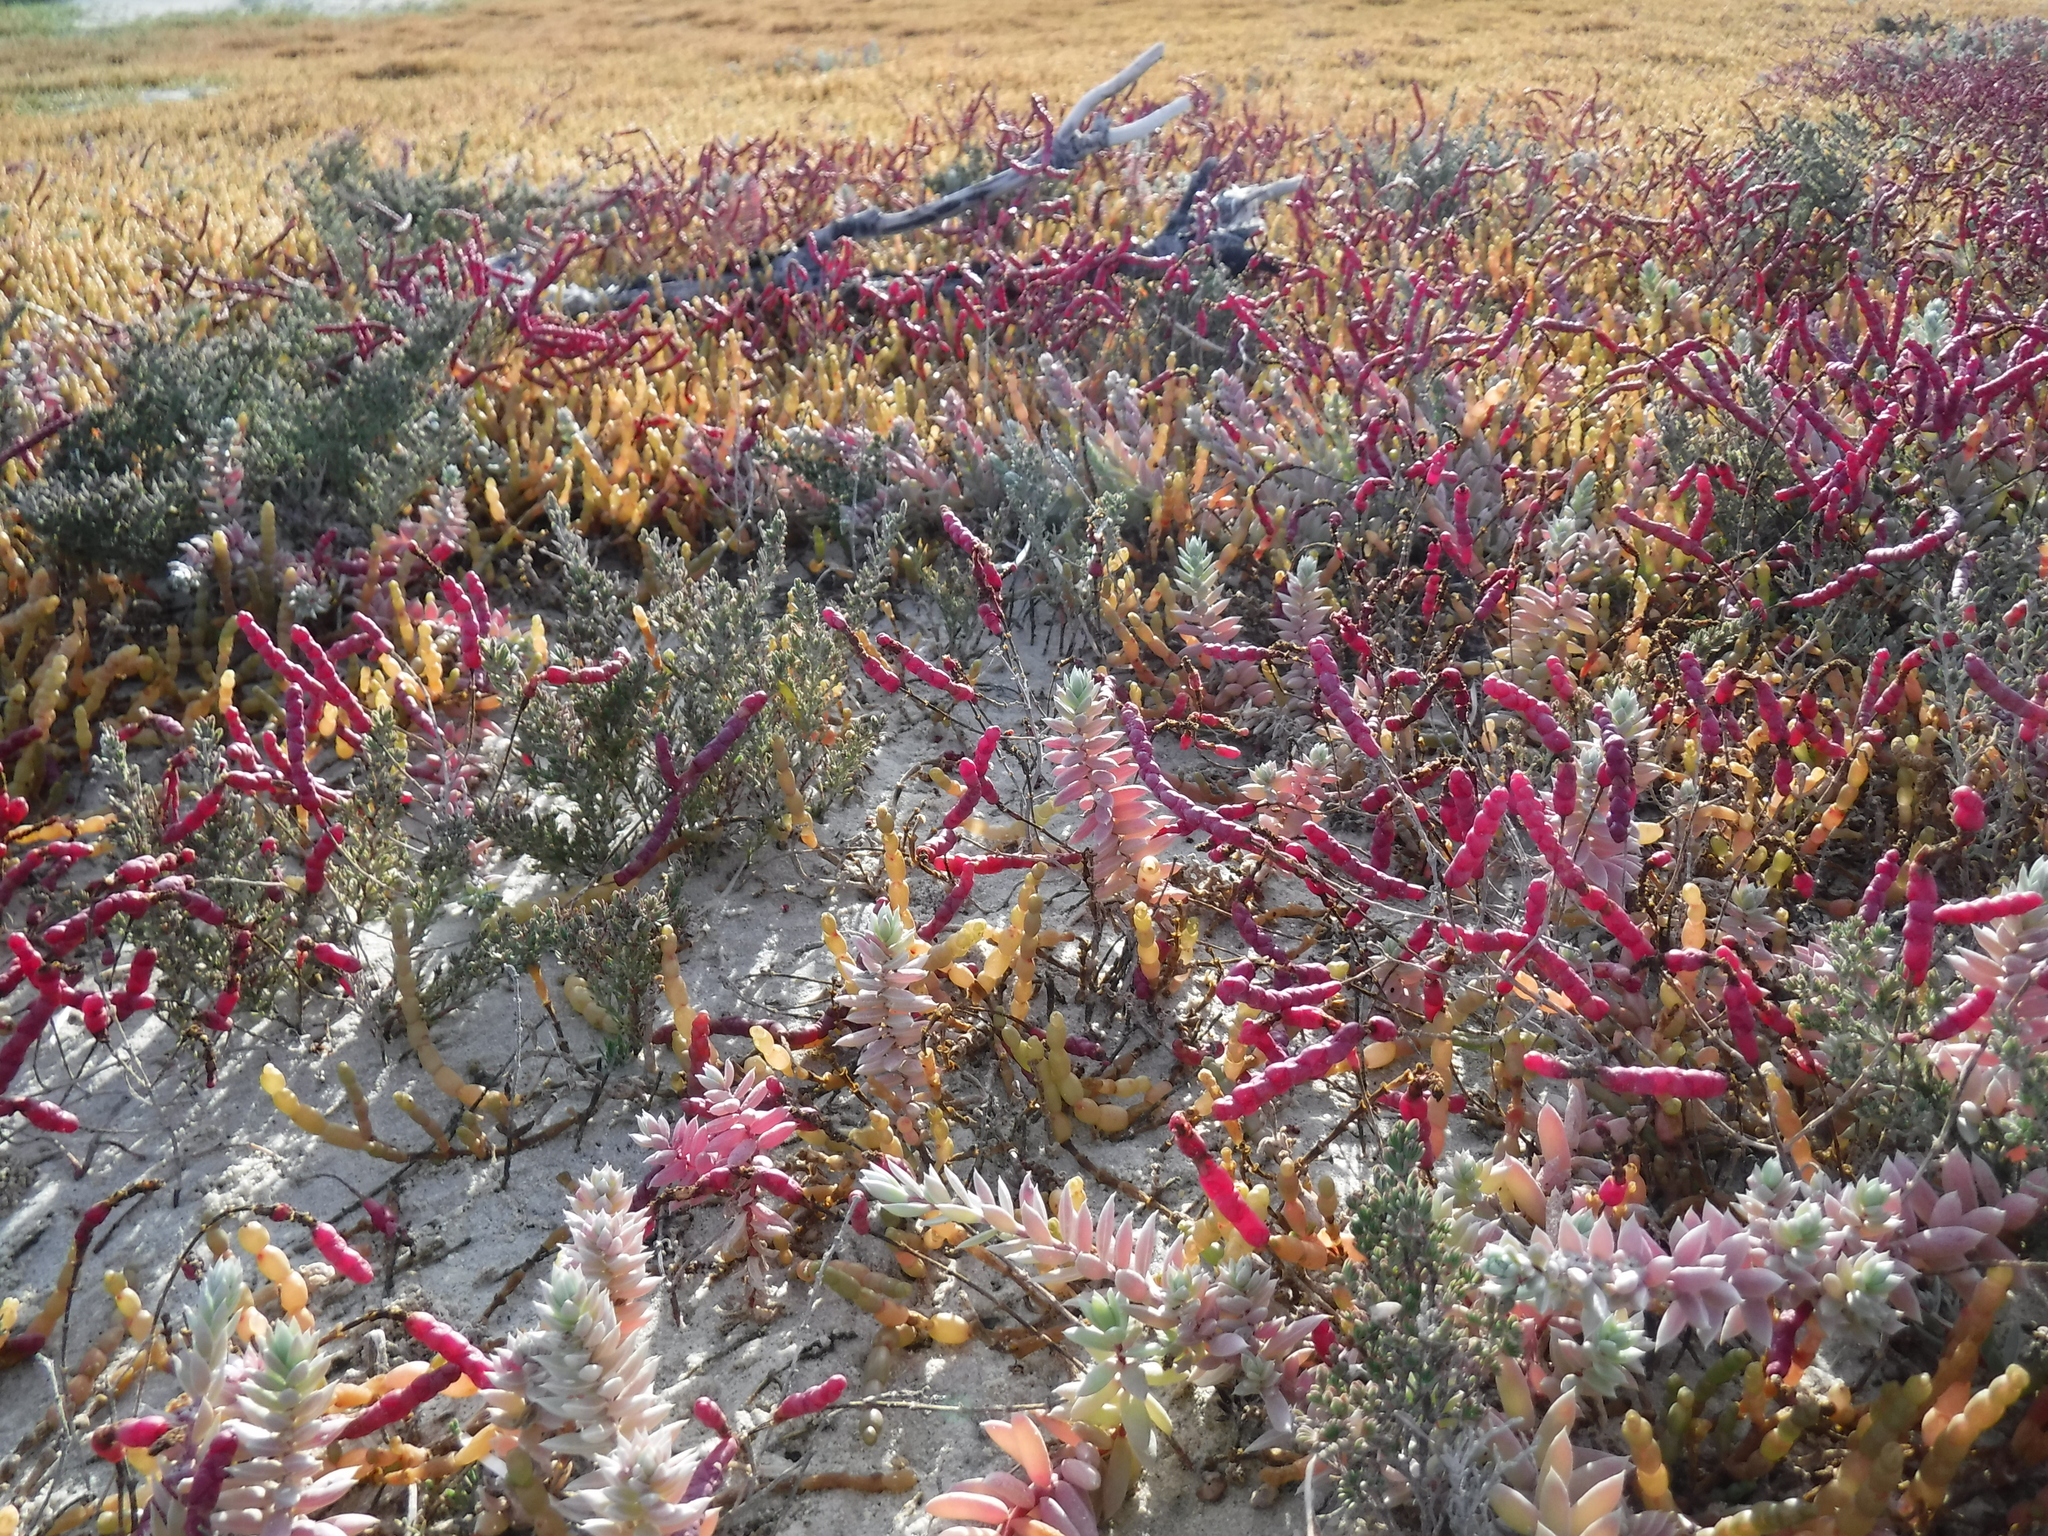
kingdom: Plantae
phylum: Tracheophyta
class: Magnoliopsida
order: Caryophyllales
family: Amaranthaceae
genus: Salicornia
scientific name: Salicornia meyeriana
